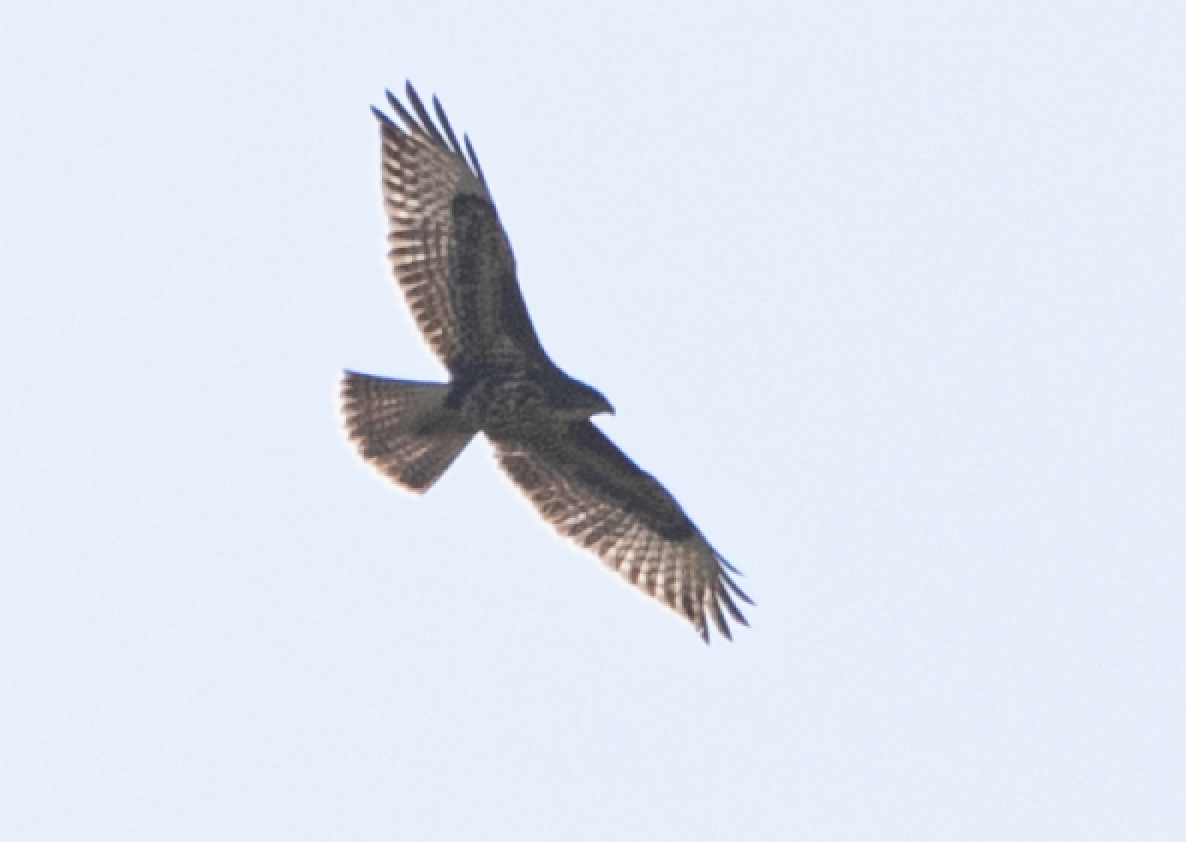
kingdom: Animalia
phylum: Chordata
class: Aves
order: Accipitriformes
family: Accipitridae
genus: Buteo
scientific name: Buteo buteo
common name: Common buzzard
